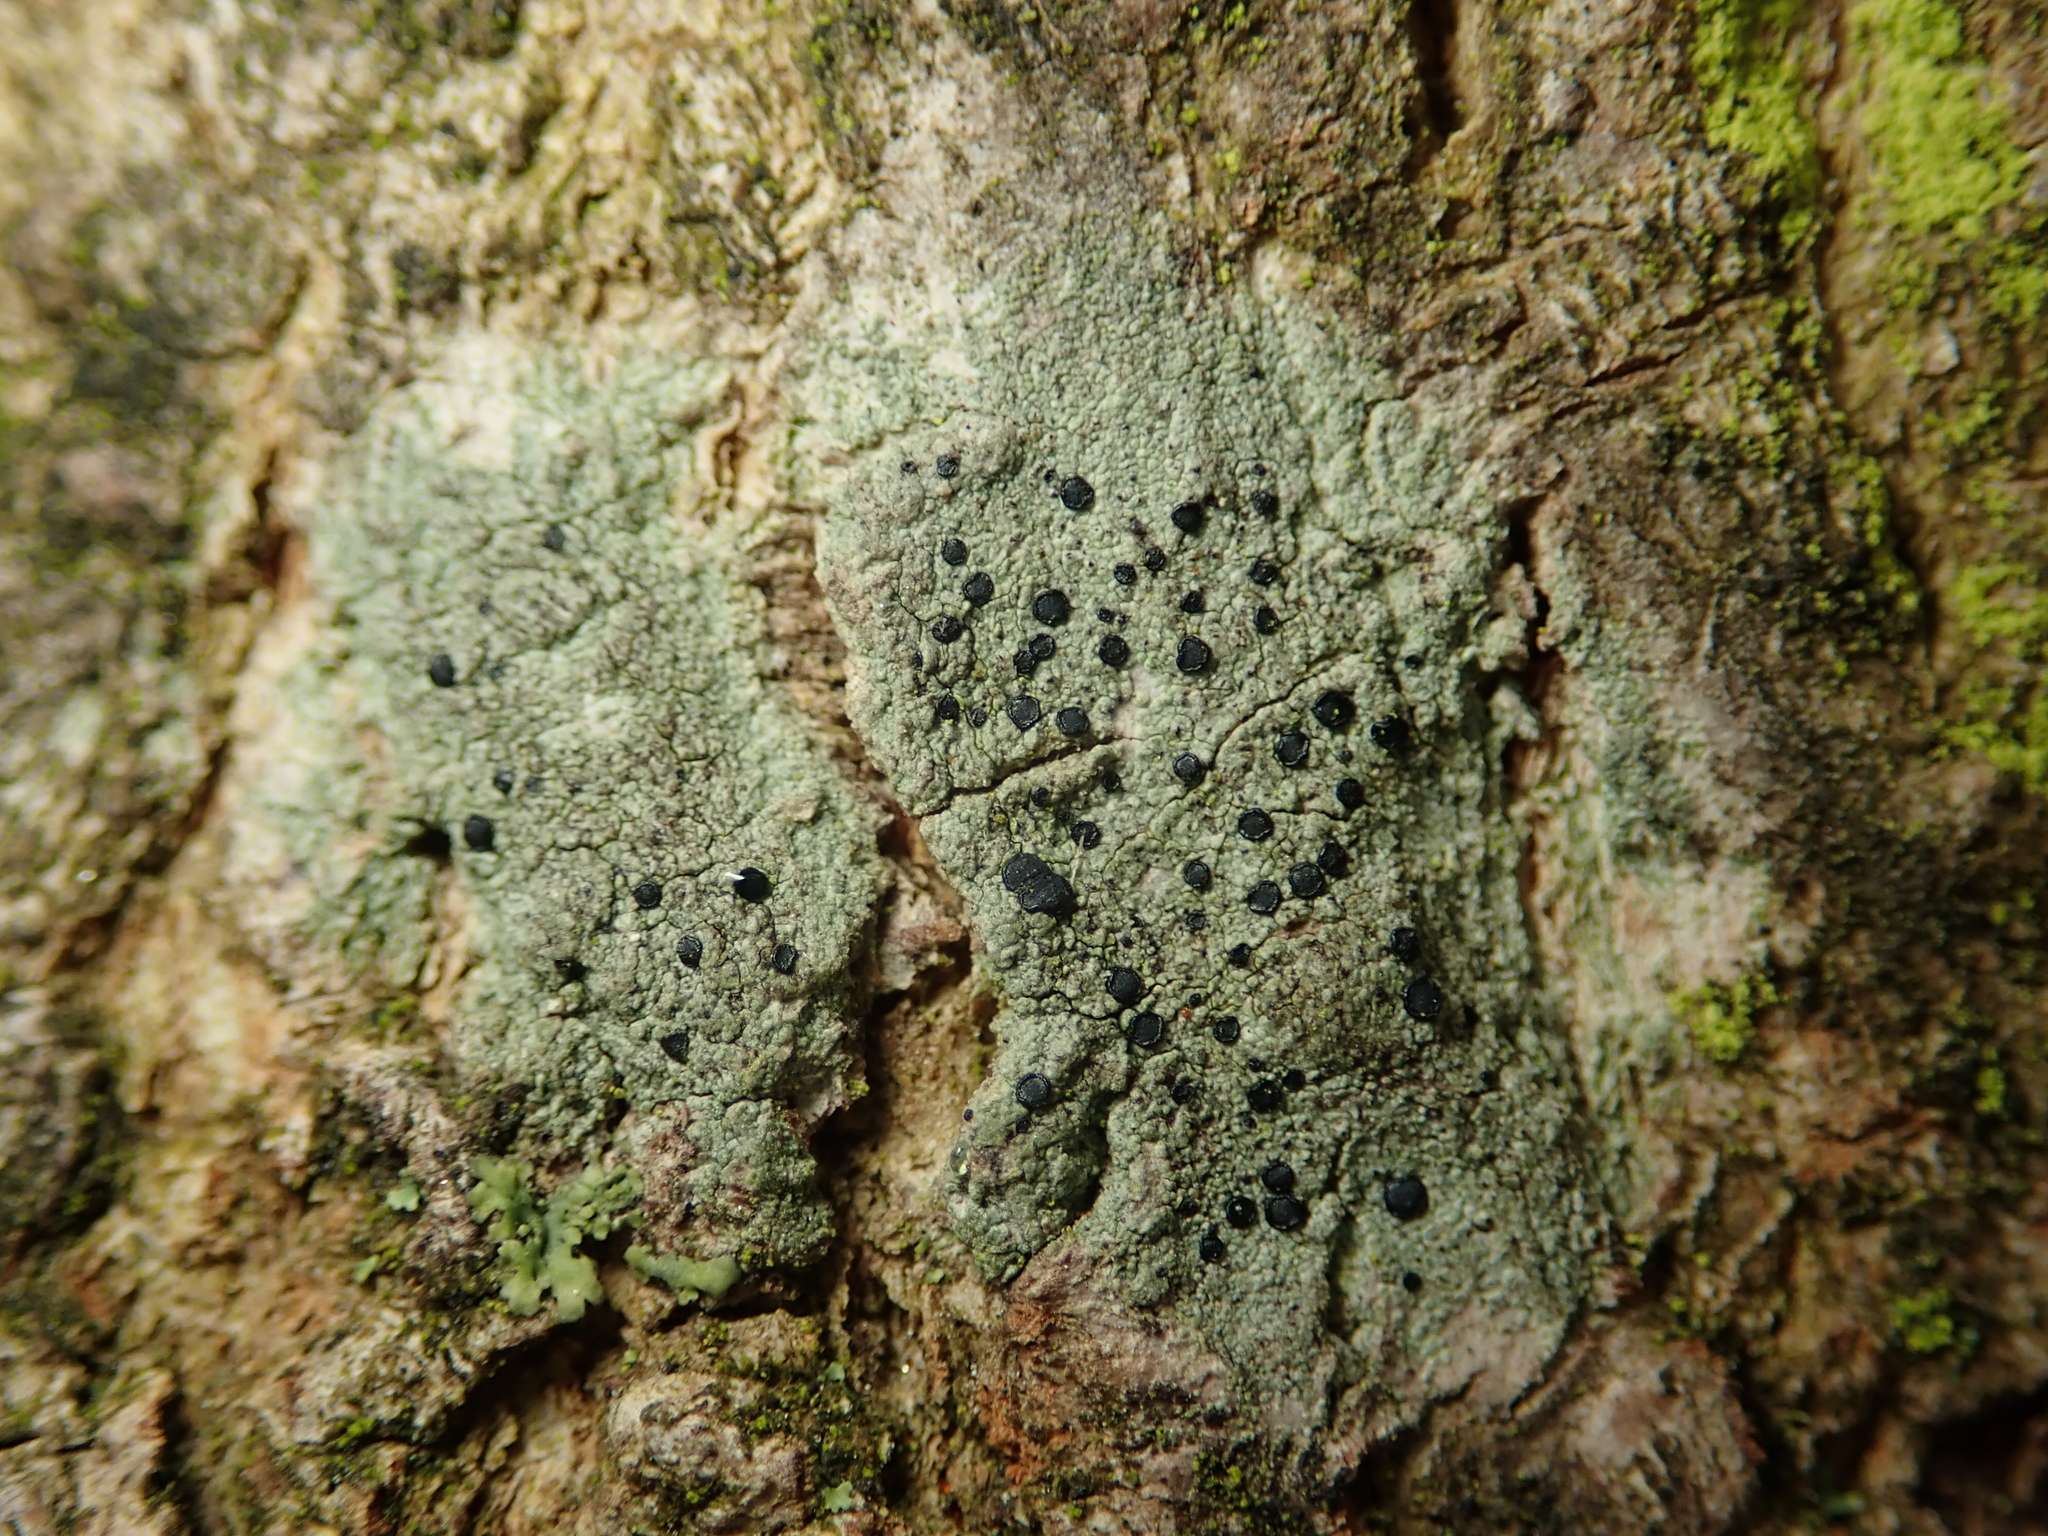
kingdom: Fungi
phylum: Ascomycota
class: Lecanoromycetes
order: Lecanorales
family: Lecanoraceae
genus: Lecidella
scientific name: Lecidella elaeochroma
